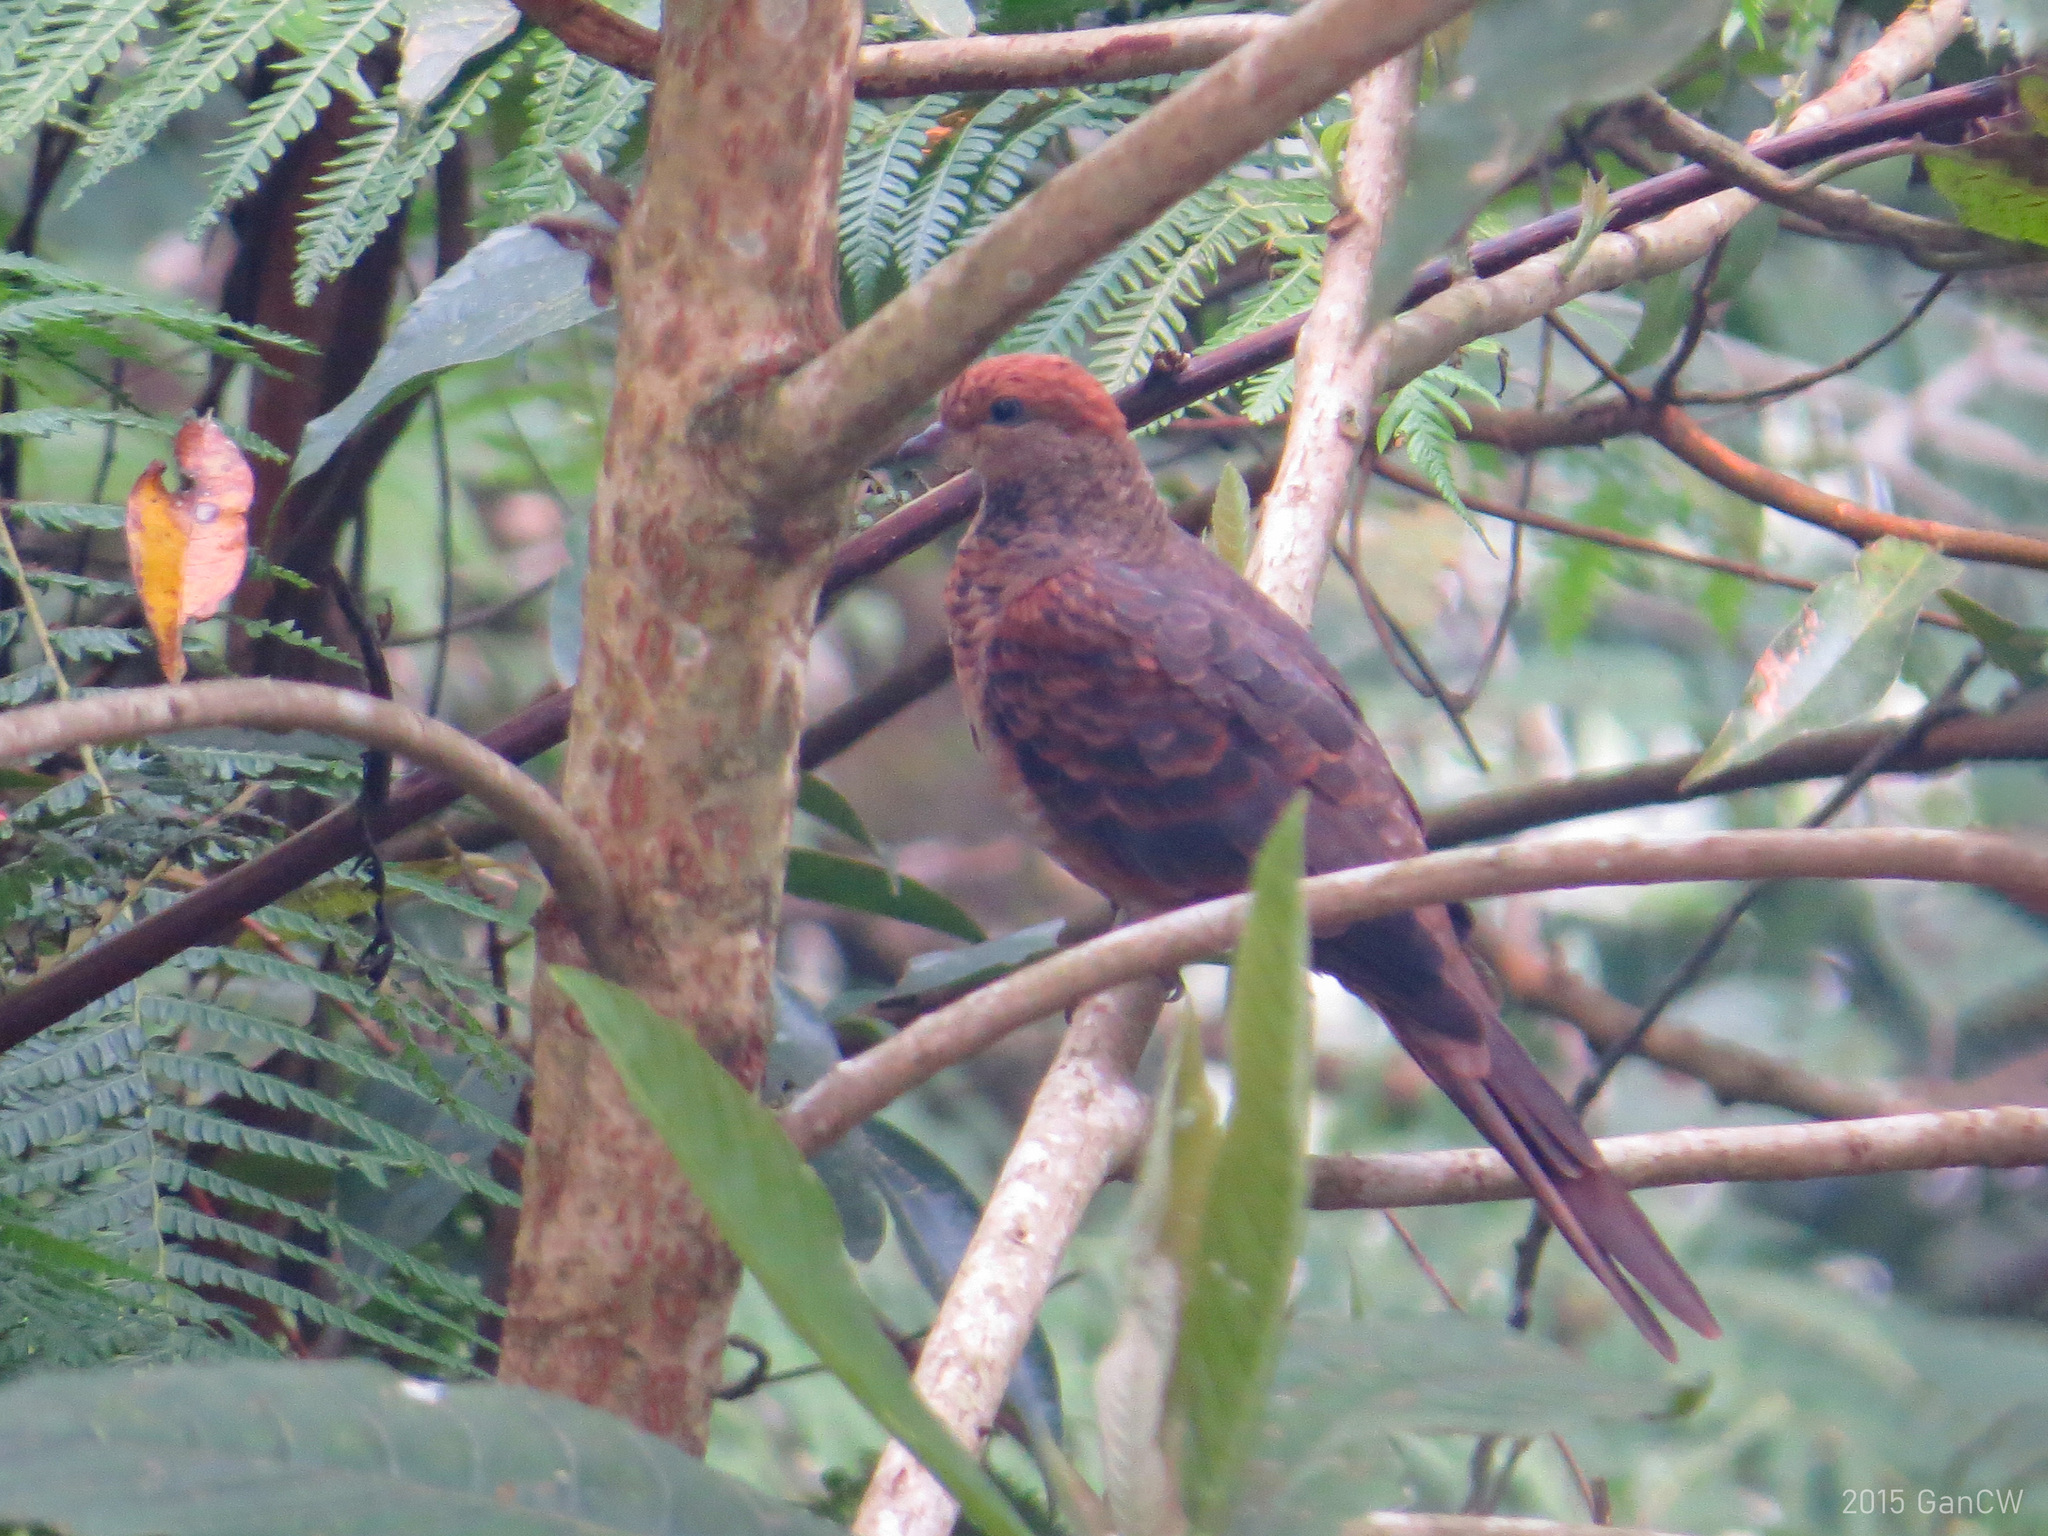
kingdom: Animalia
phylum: Chordata
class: Aves
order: Columbiformes
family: Columbidae
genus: Macropygia
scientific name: Macropygia ruficeps
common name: Little cuckoo-dove
